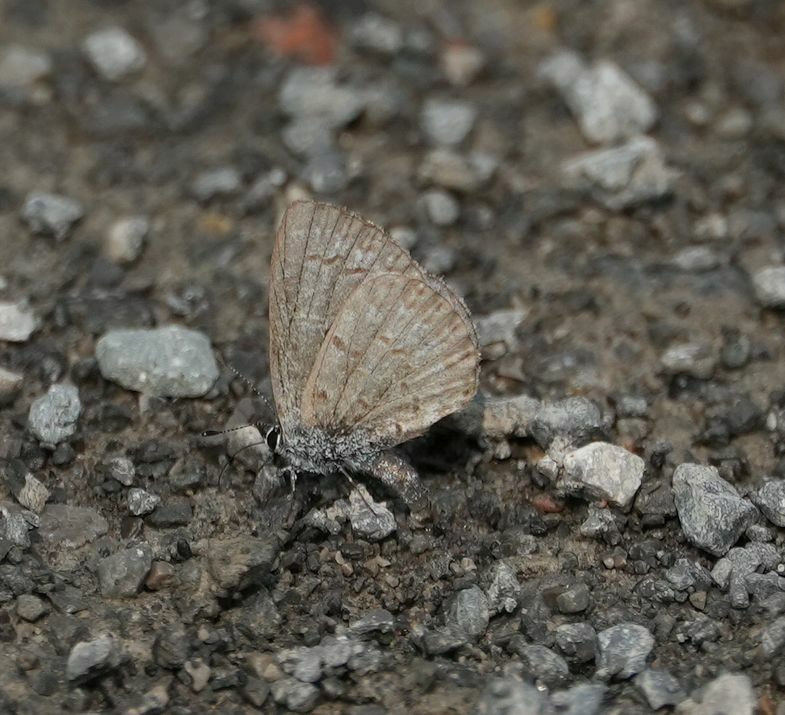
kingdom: Animalia
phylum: Arthropoda
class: Insecta
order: Lepidoptera
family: Lycaenidae
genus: Celastrina
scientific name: Celastrina lucia
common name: Lucia azure
